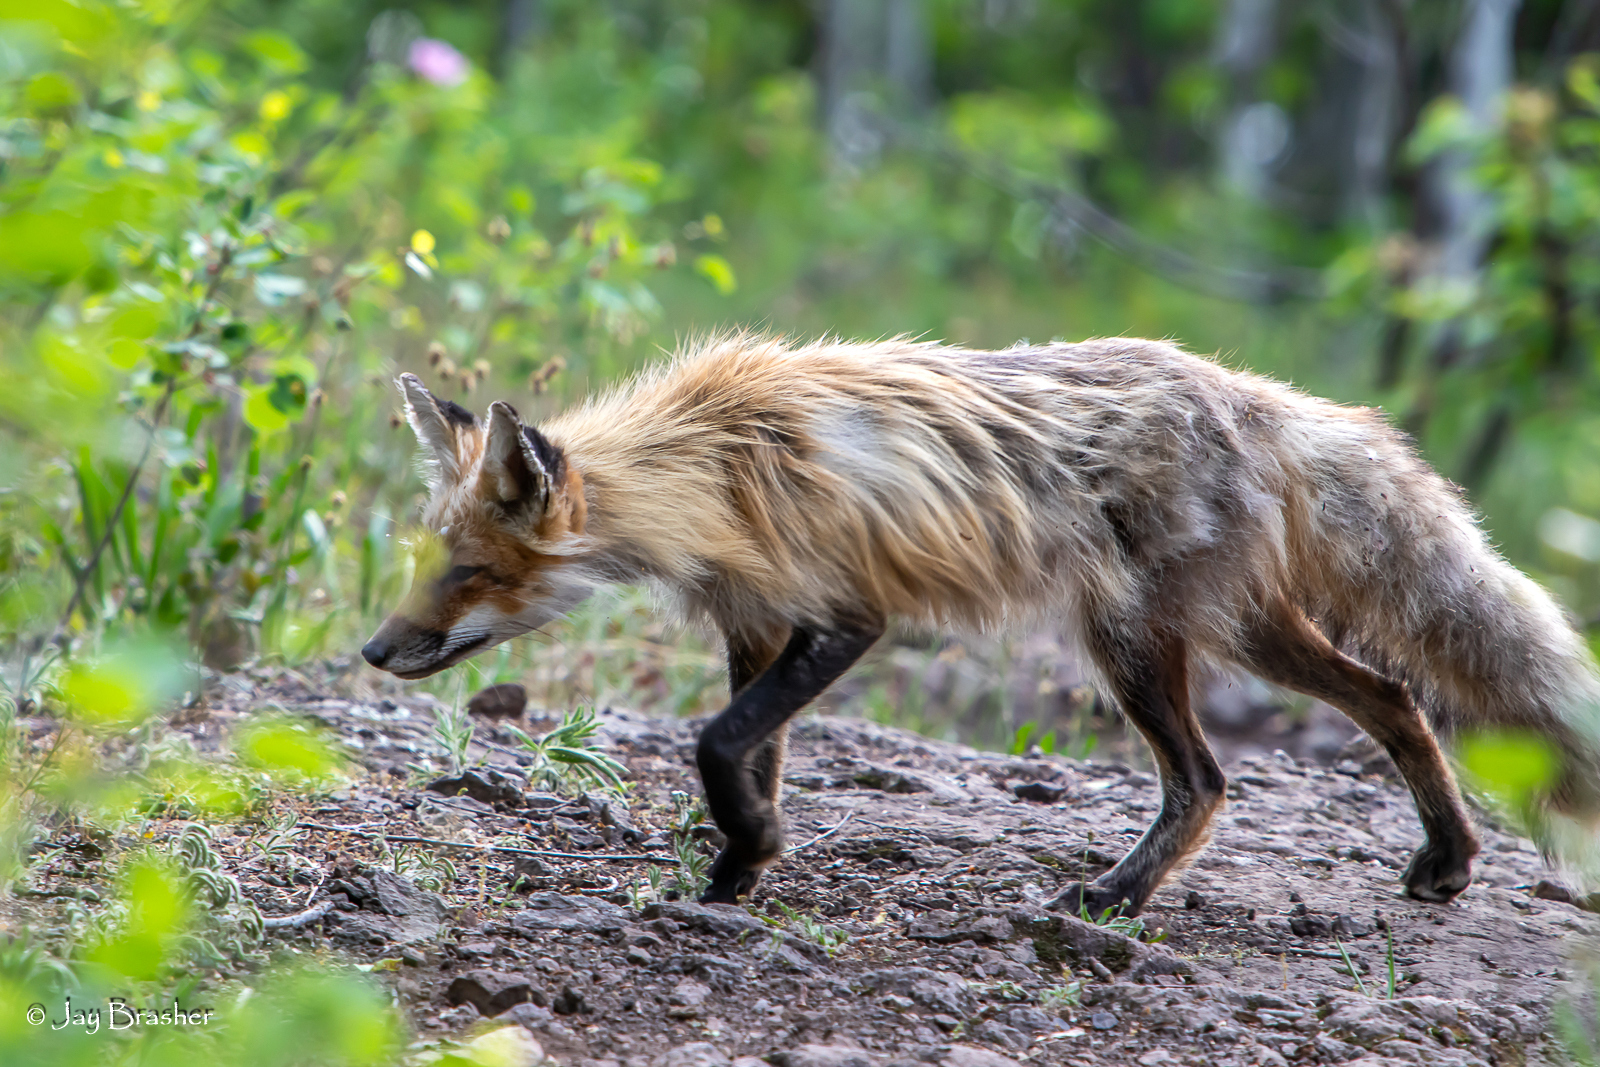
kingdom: Animalia
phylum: Chordata
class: Mammalia
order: Carnivora
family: Canidae
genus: Vulpes
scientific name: Vulpes vulpes
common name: Red fox
